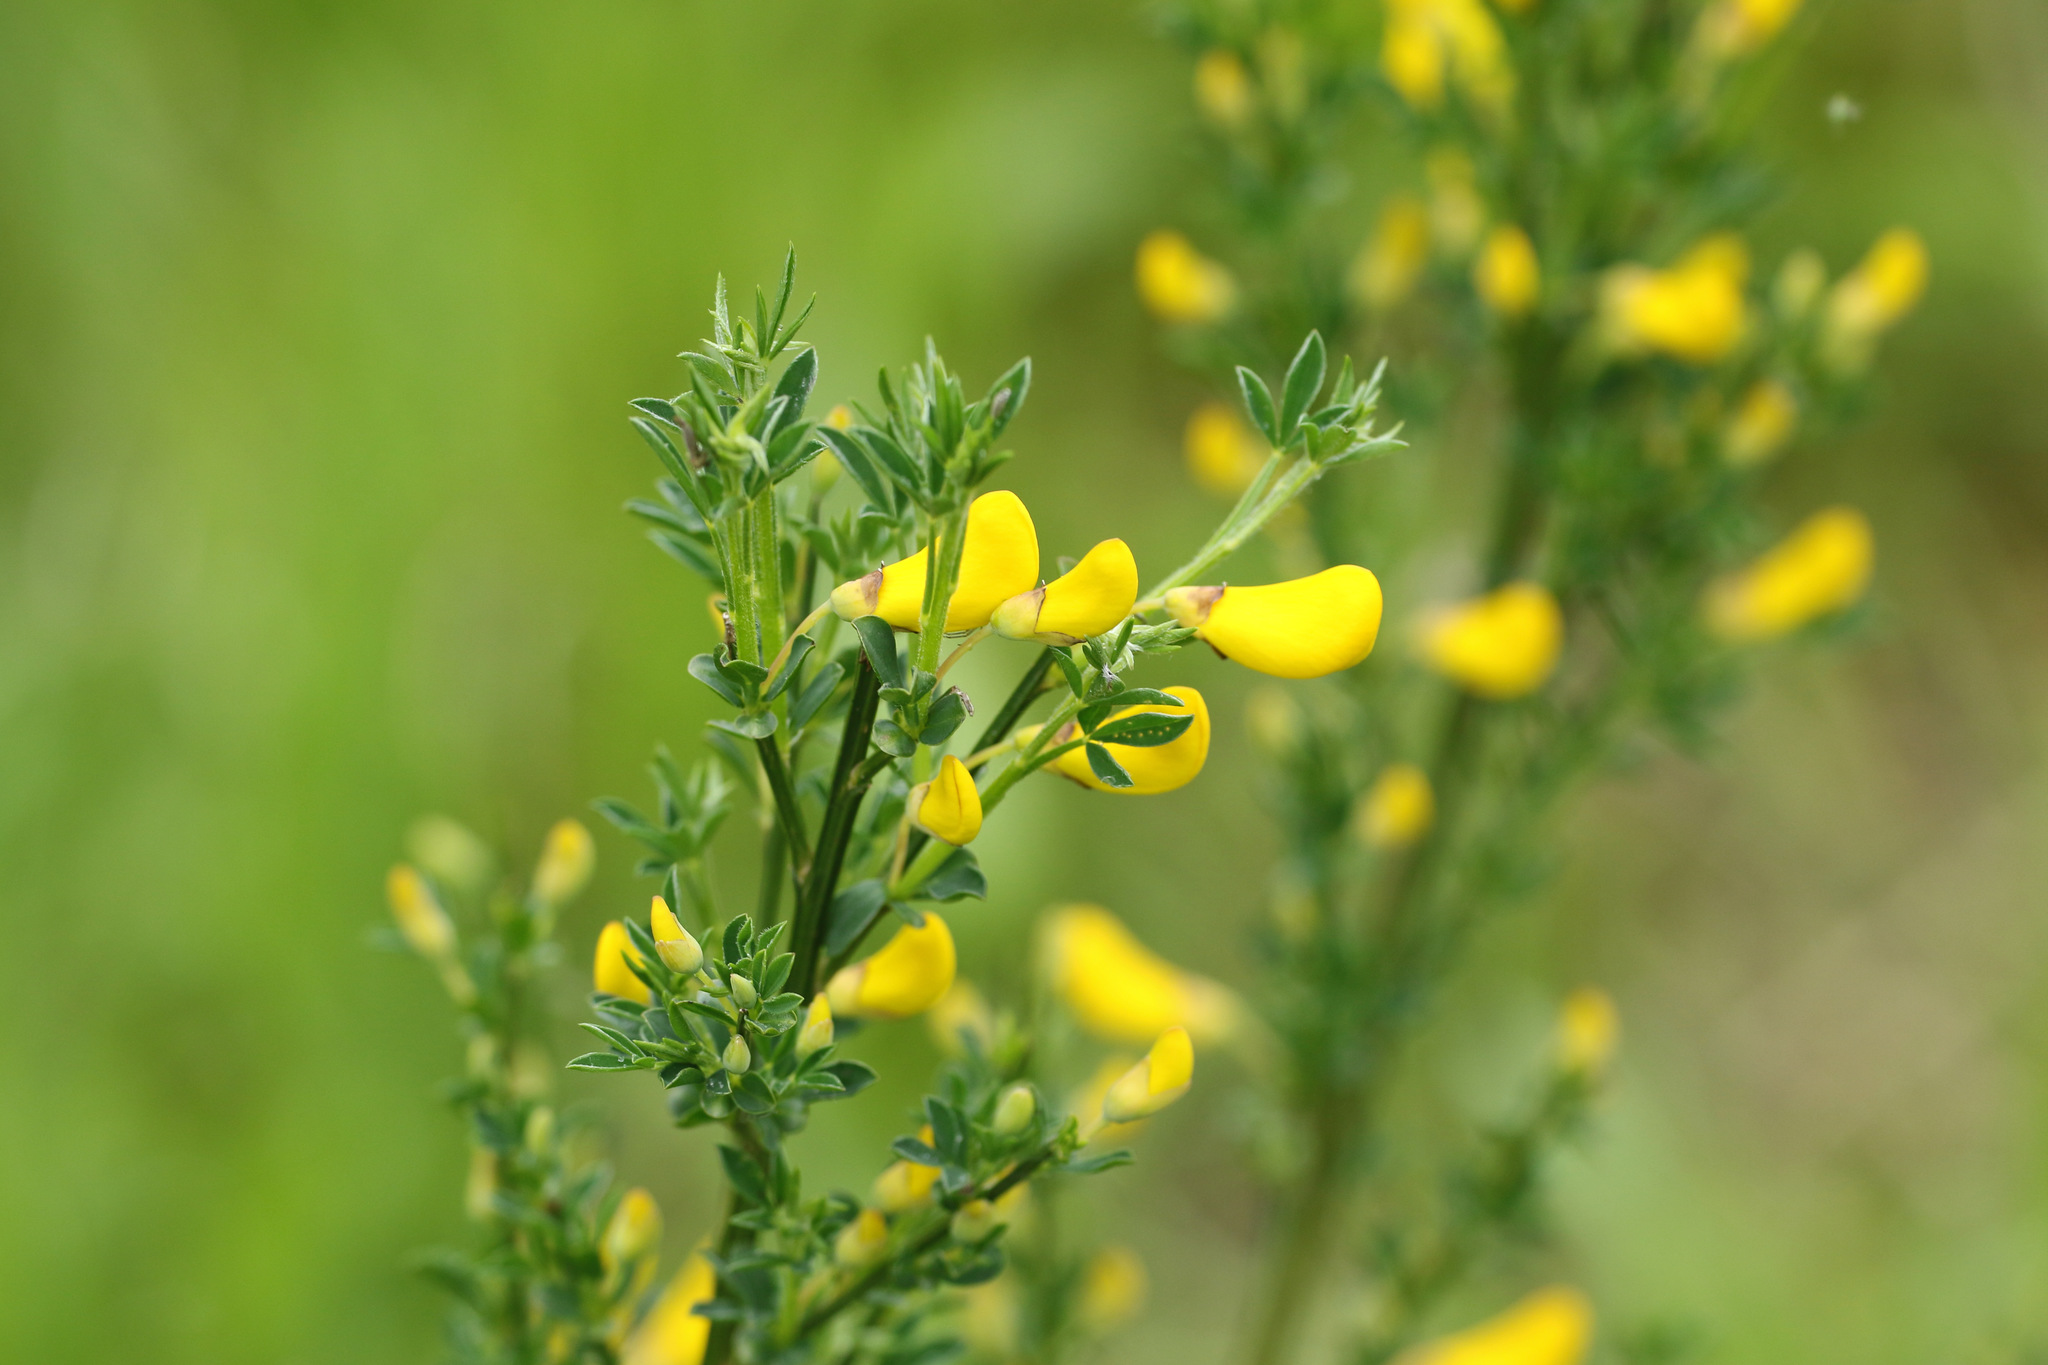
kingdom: Plantae
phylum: Tracheophyta
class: Magnoliopsida
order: Fabales
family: Fabaceae
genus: Cytisus
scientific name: Cytisus scoparius
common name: Scotch broom
